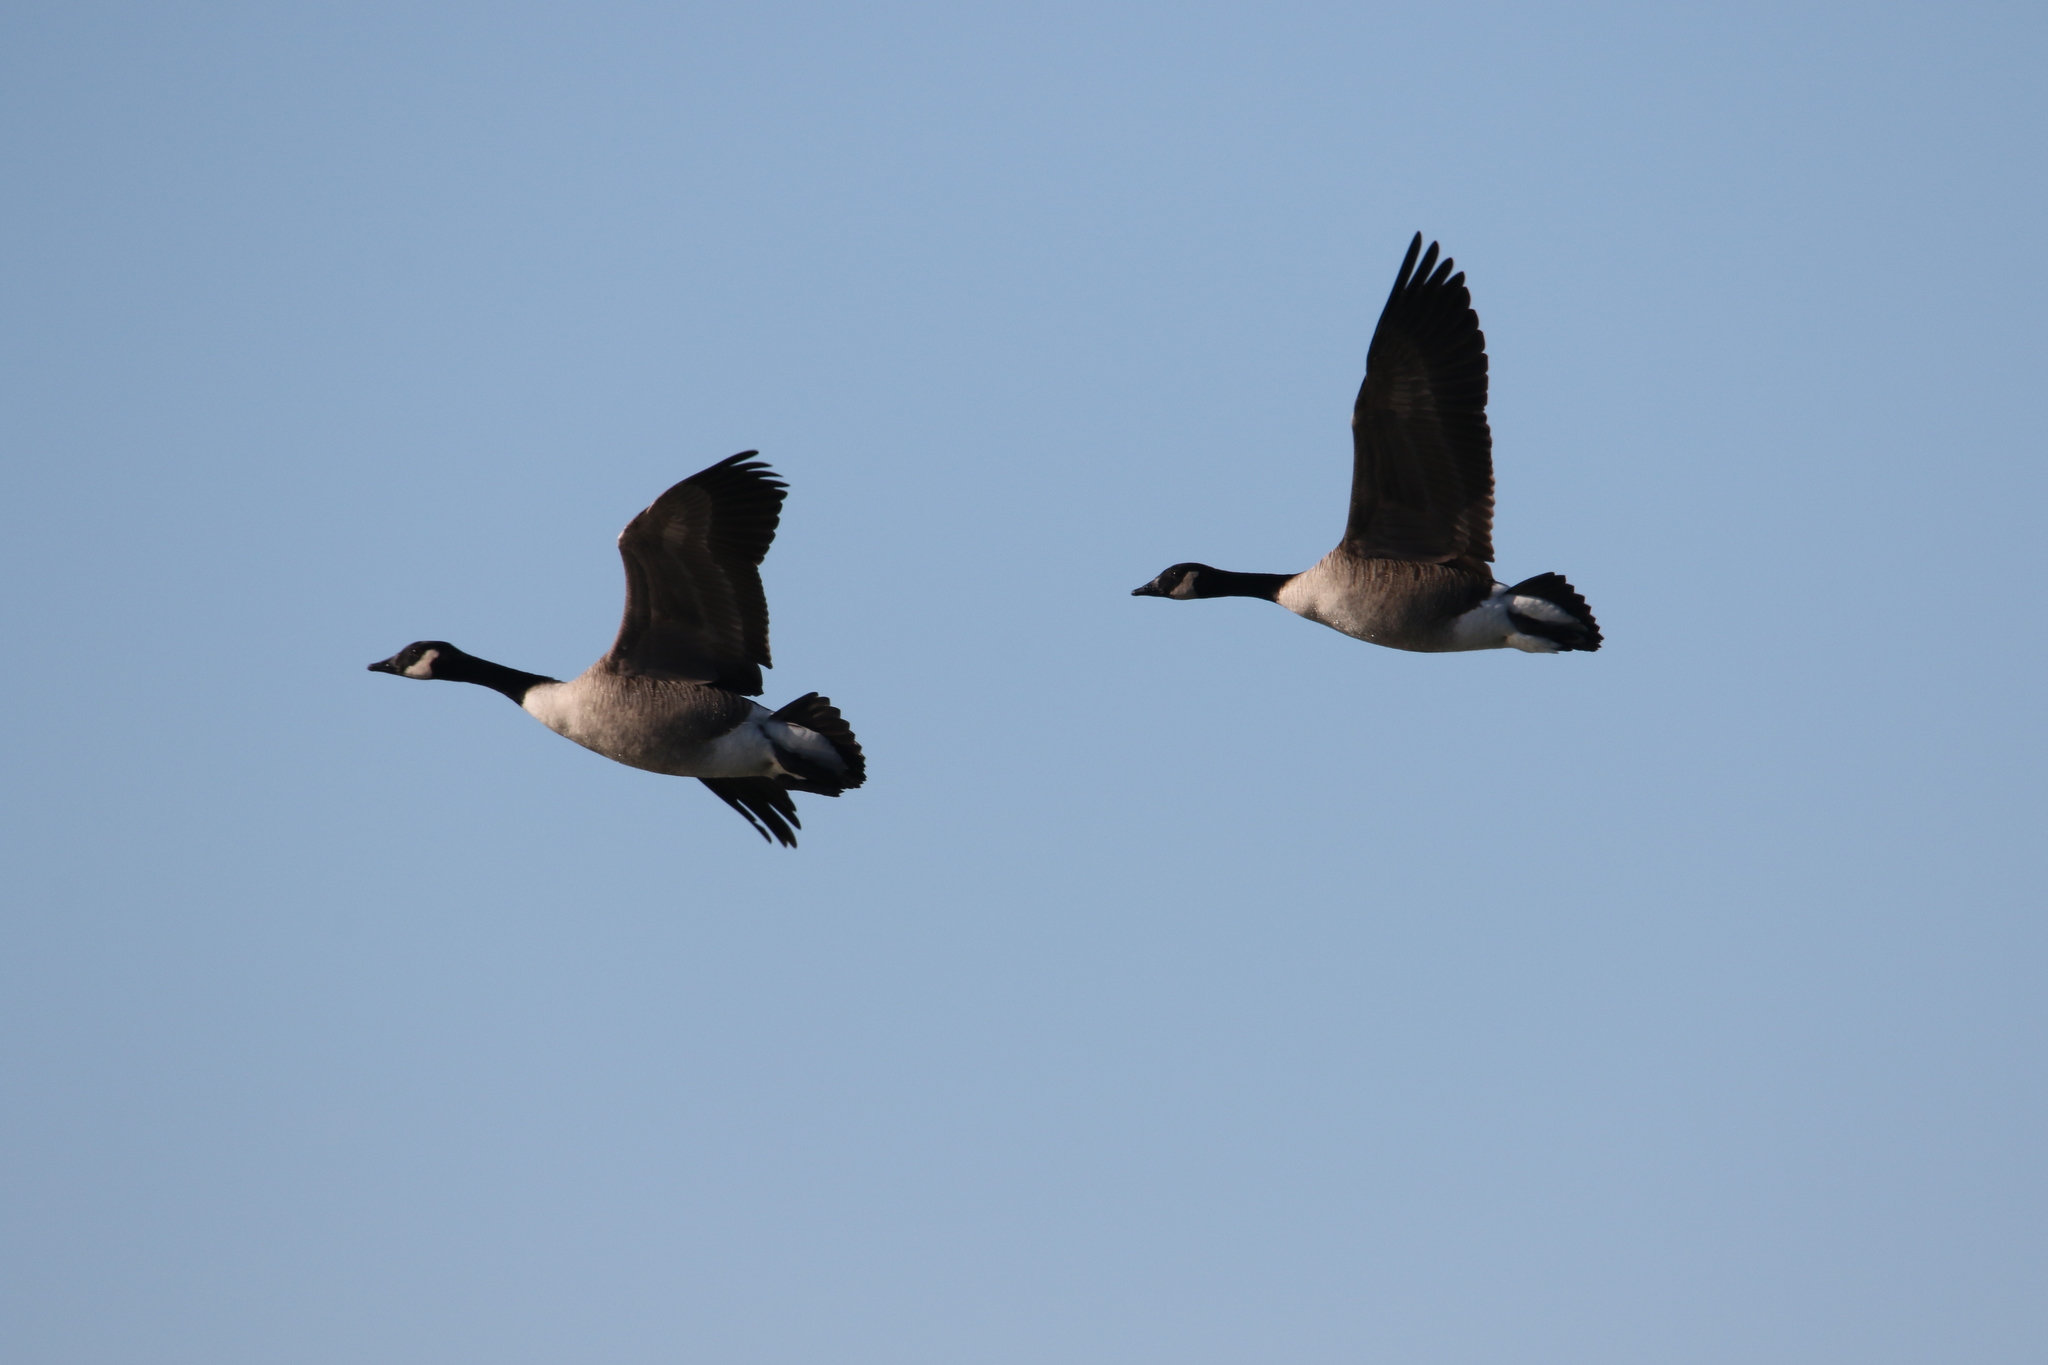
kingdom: Animalia
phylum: Chordata
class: Aves
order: Anseriformes
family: Anatidae
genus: Branta
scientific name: Branta canadensis
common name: Canada goose
